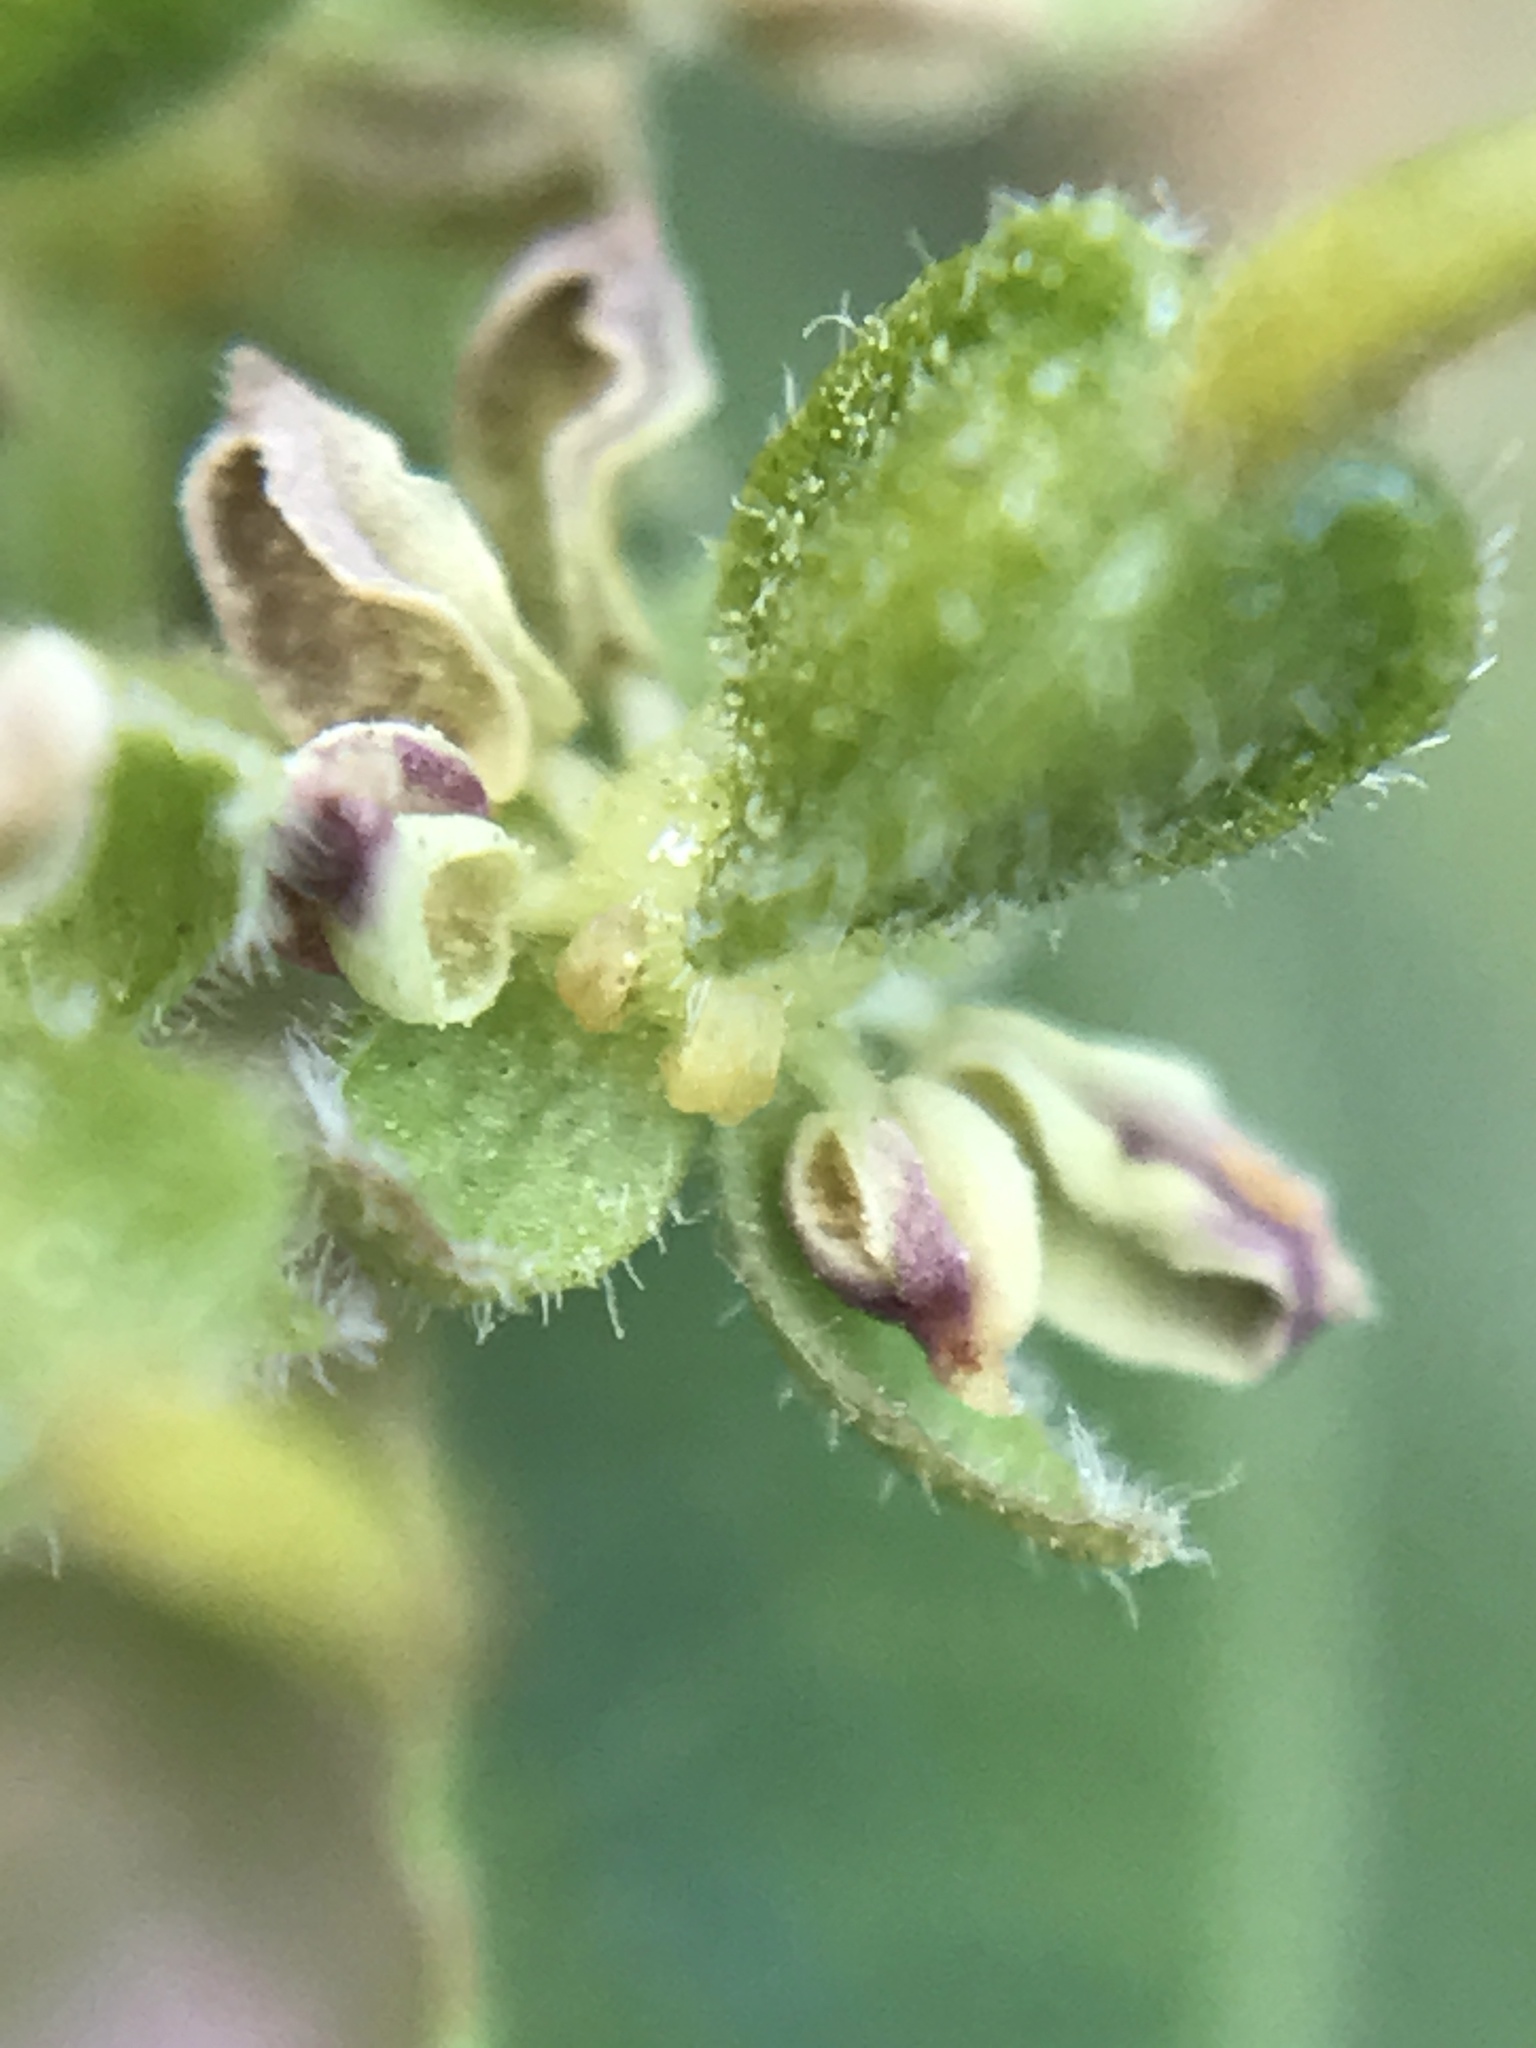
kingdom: Plantae
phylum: Tracheophyta
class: Magnoliopsida
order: Sapindales
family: Sapindaceae
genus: Dodonaea
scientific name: Dodonaea viscosa
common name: Hopbush
